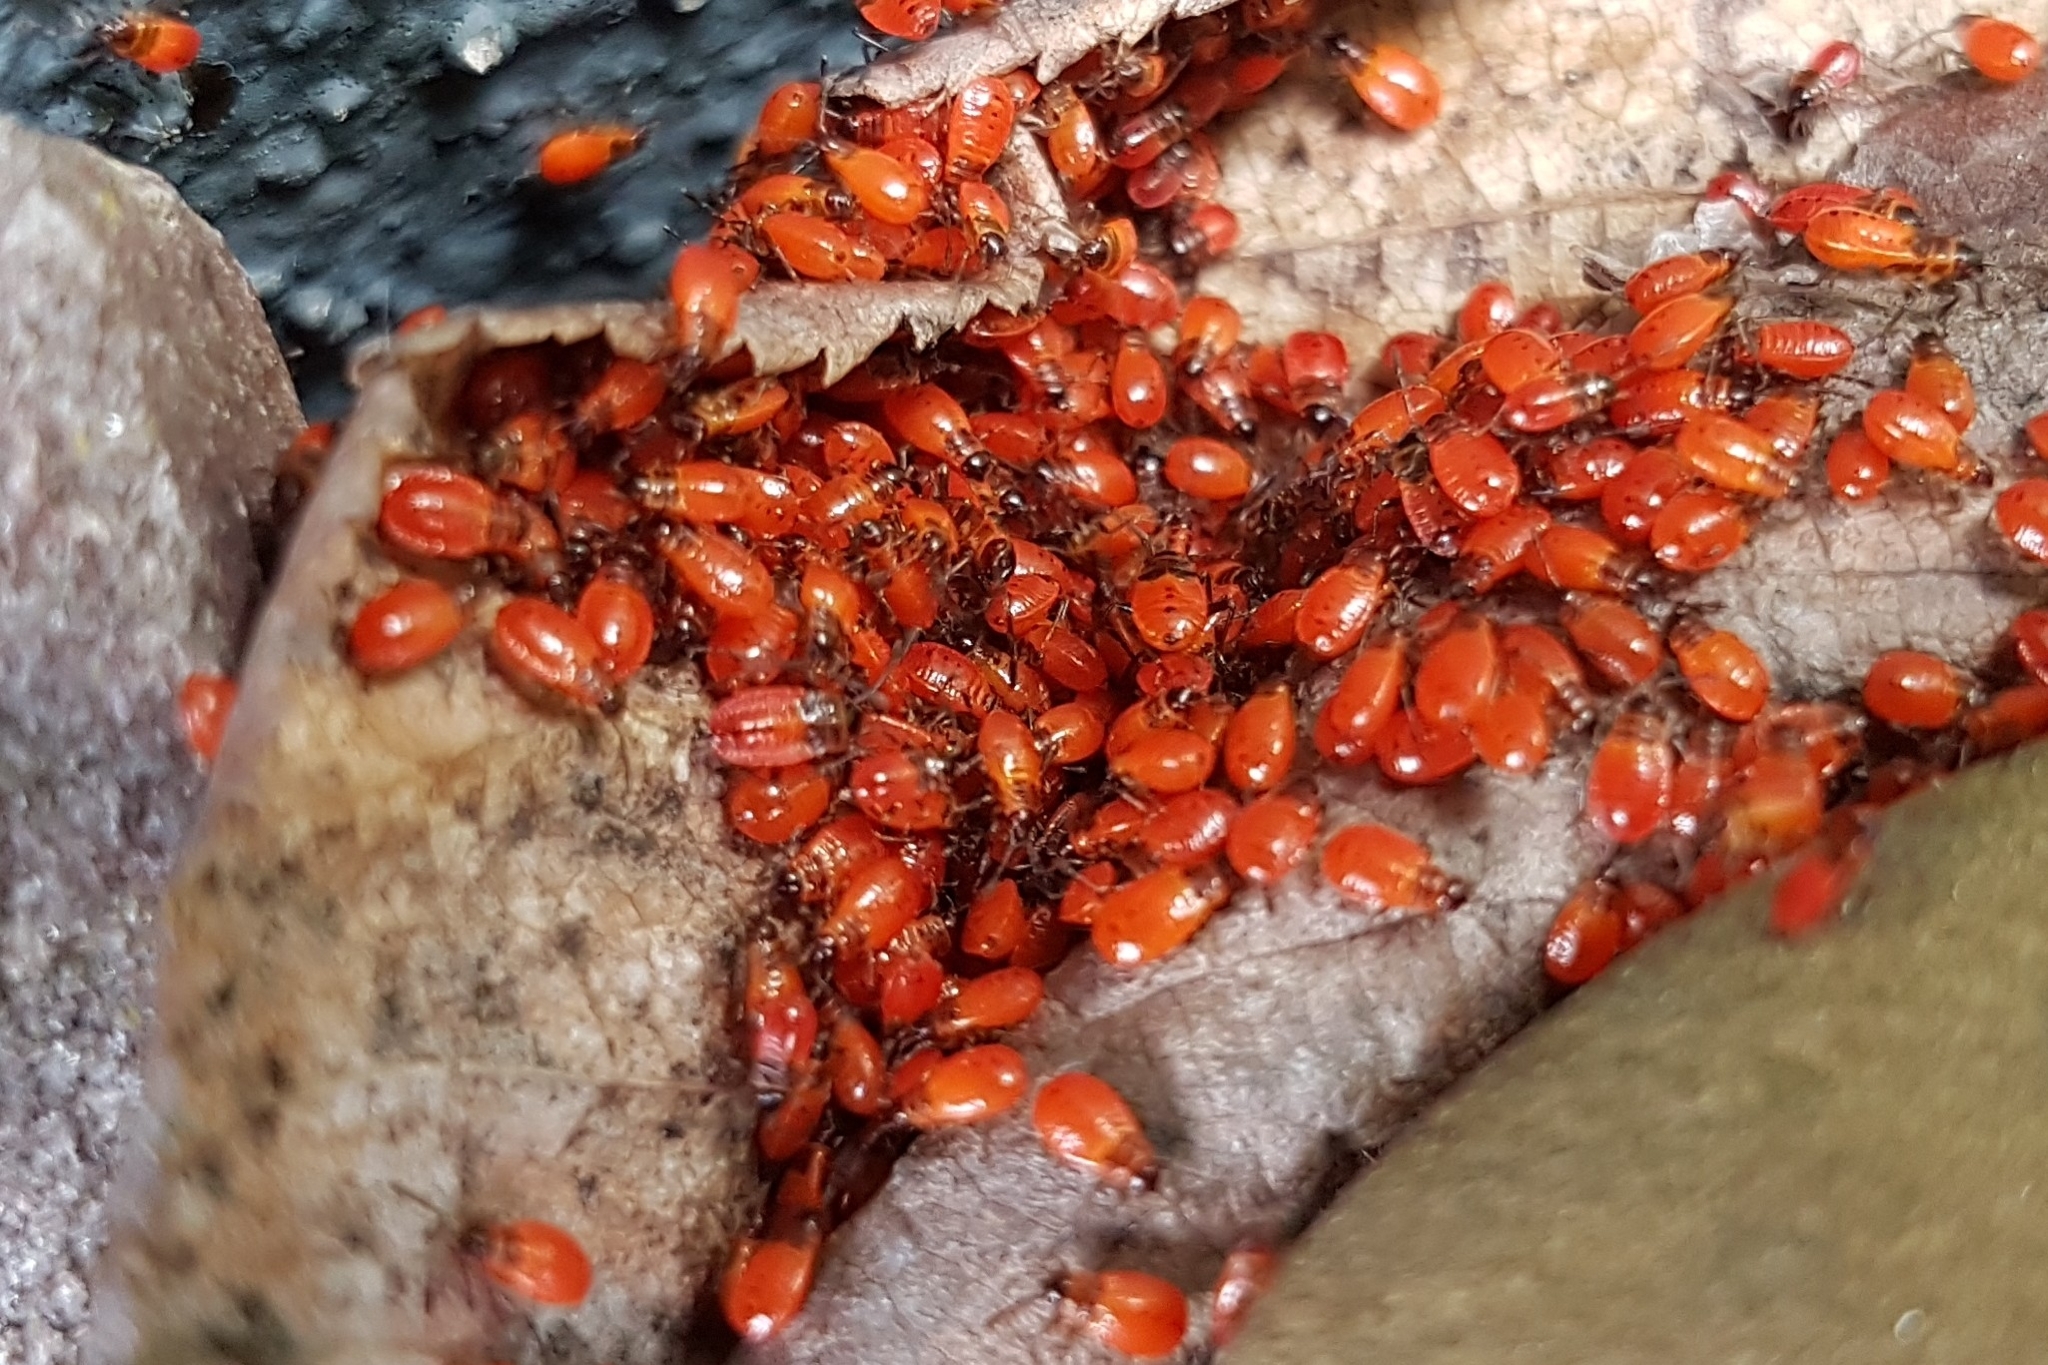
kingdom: Animalia
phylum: Arthropoda
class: Insecta
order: Hemiptera
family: Pyrrhocoridae
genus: Pyrrhocoris
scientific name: Pyrrhocoris apterus
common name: Firebug
